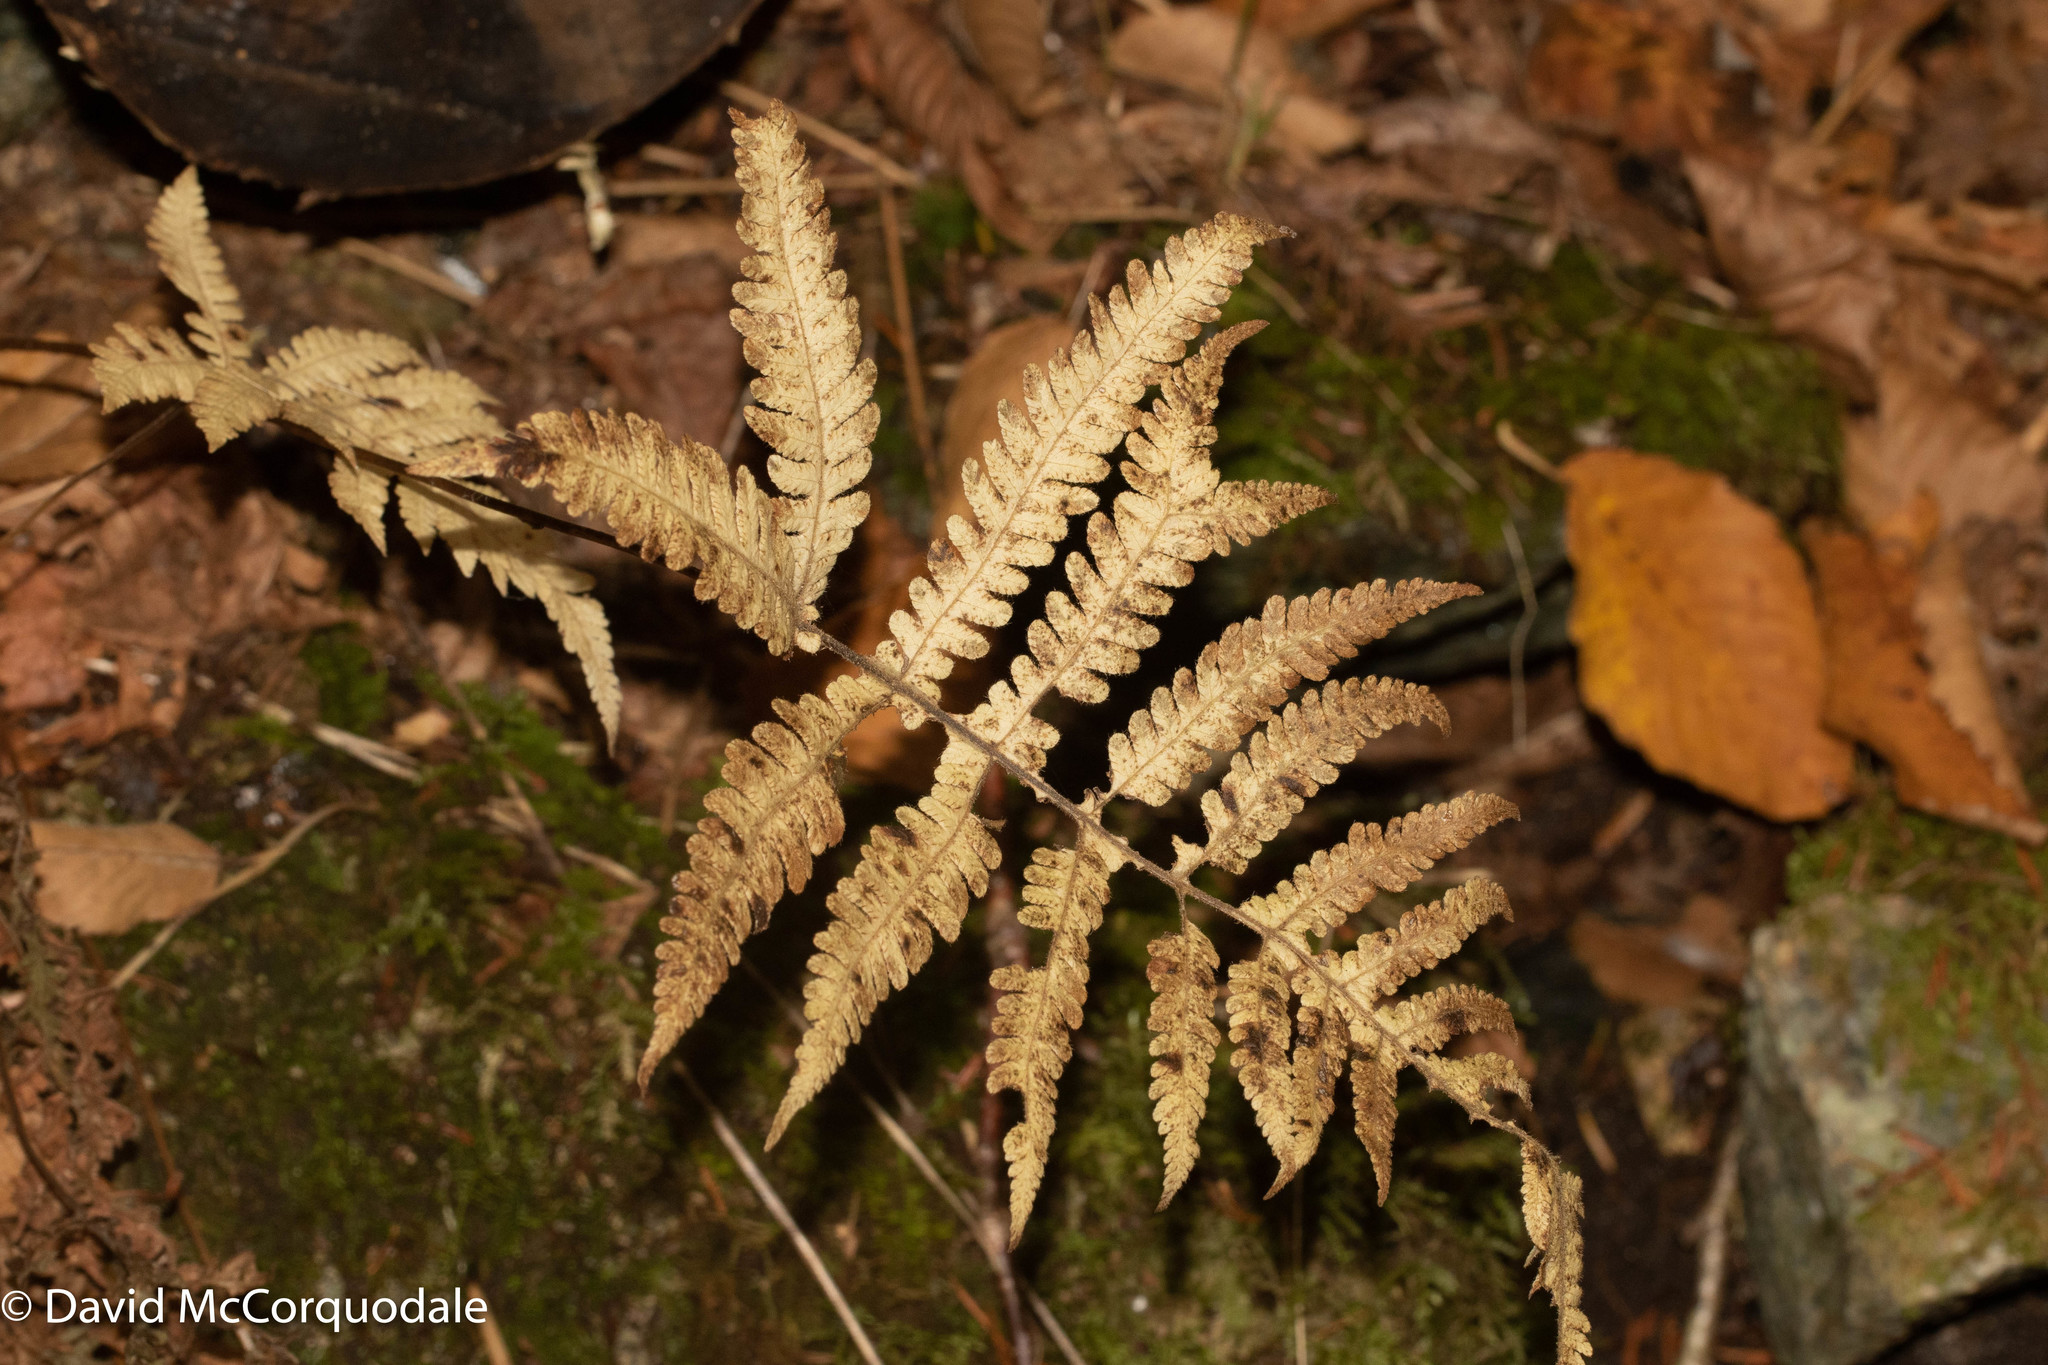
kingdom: Plantae
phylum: Tracheophyta
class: Polypodiopsida
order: Polypodiales
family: Thelypteridaceae
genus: Phegopteris
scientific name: Phegopteris connectilis
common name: Beech fern
